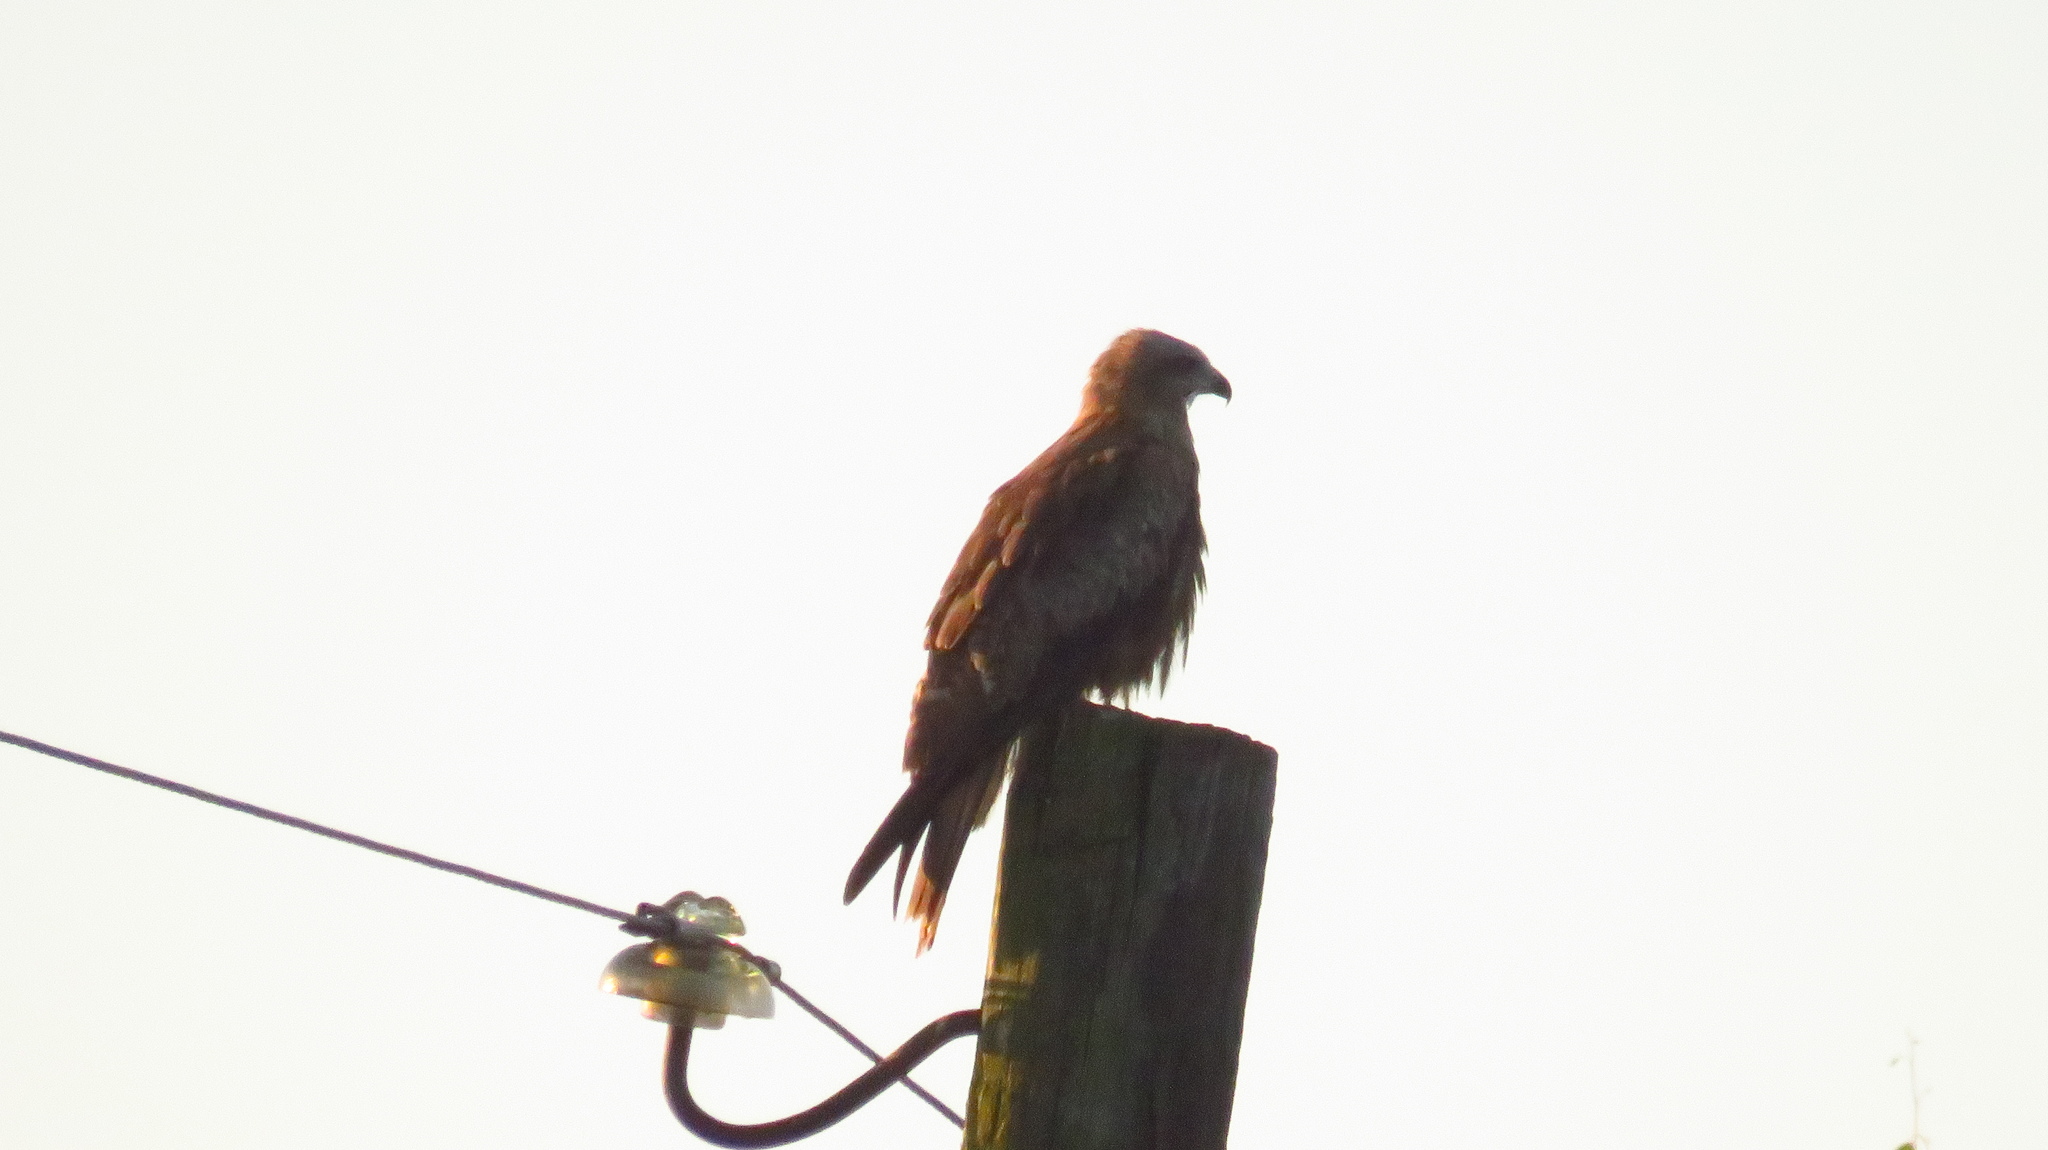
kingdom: Animalia
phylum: Chordata
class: Aves
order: Accipitriformes
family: Accipitridae
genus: Milvus
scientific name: Milvus migrans
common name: Black kite
